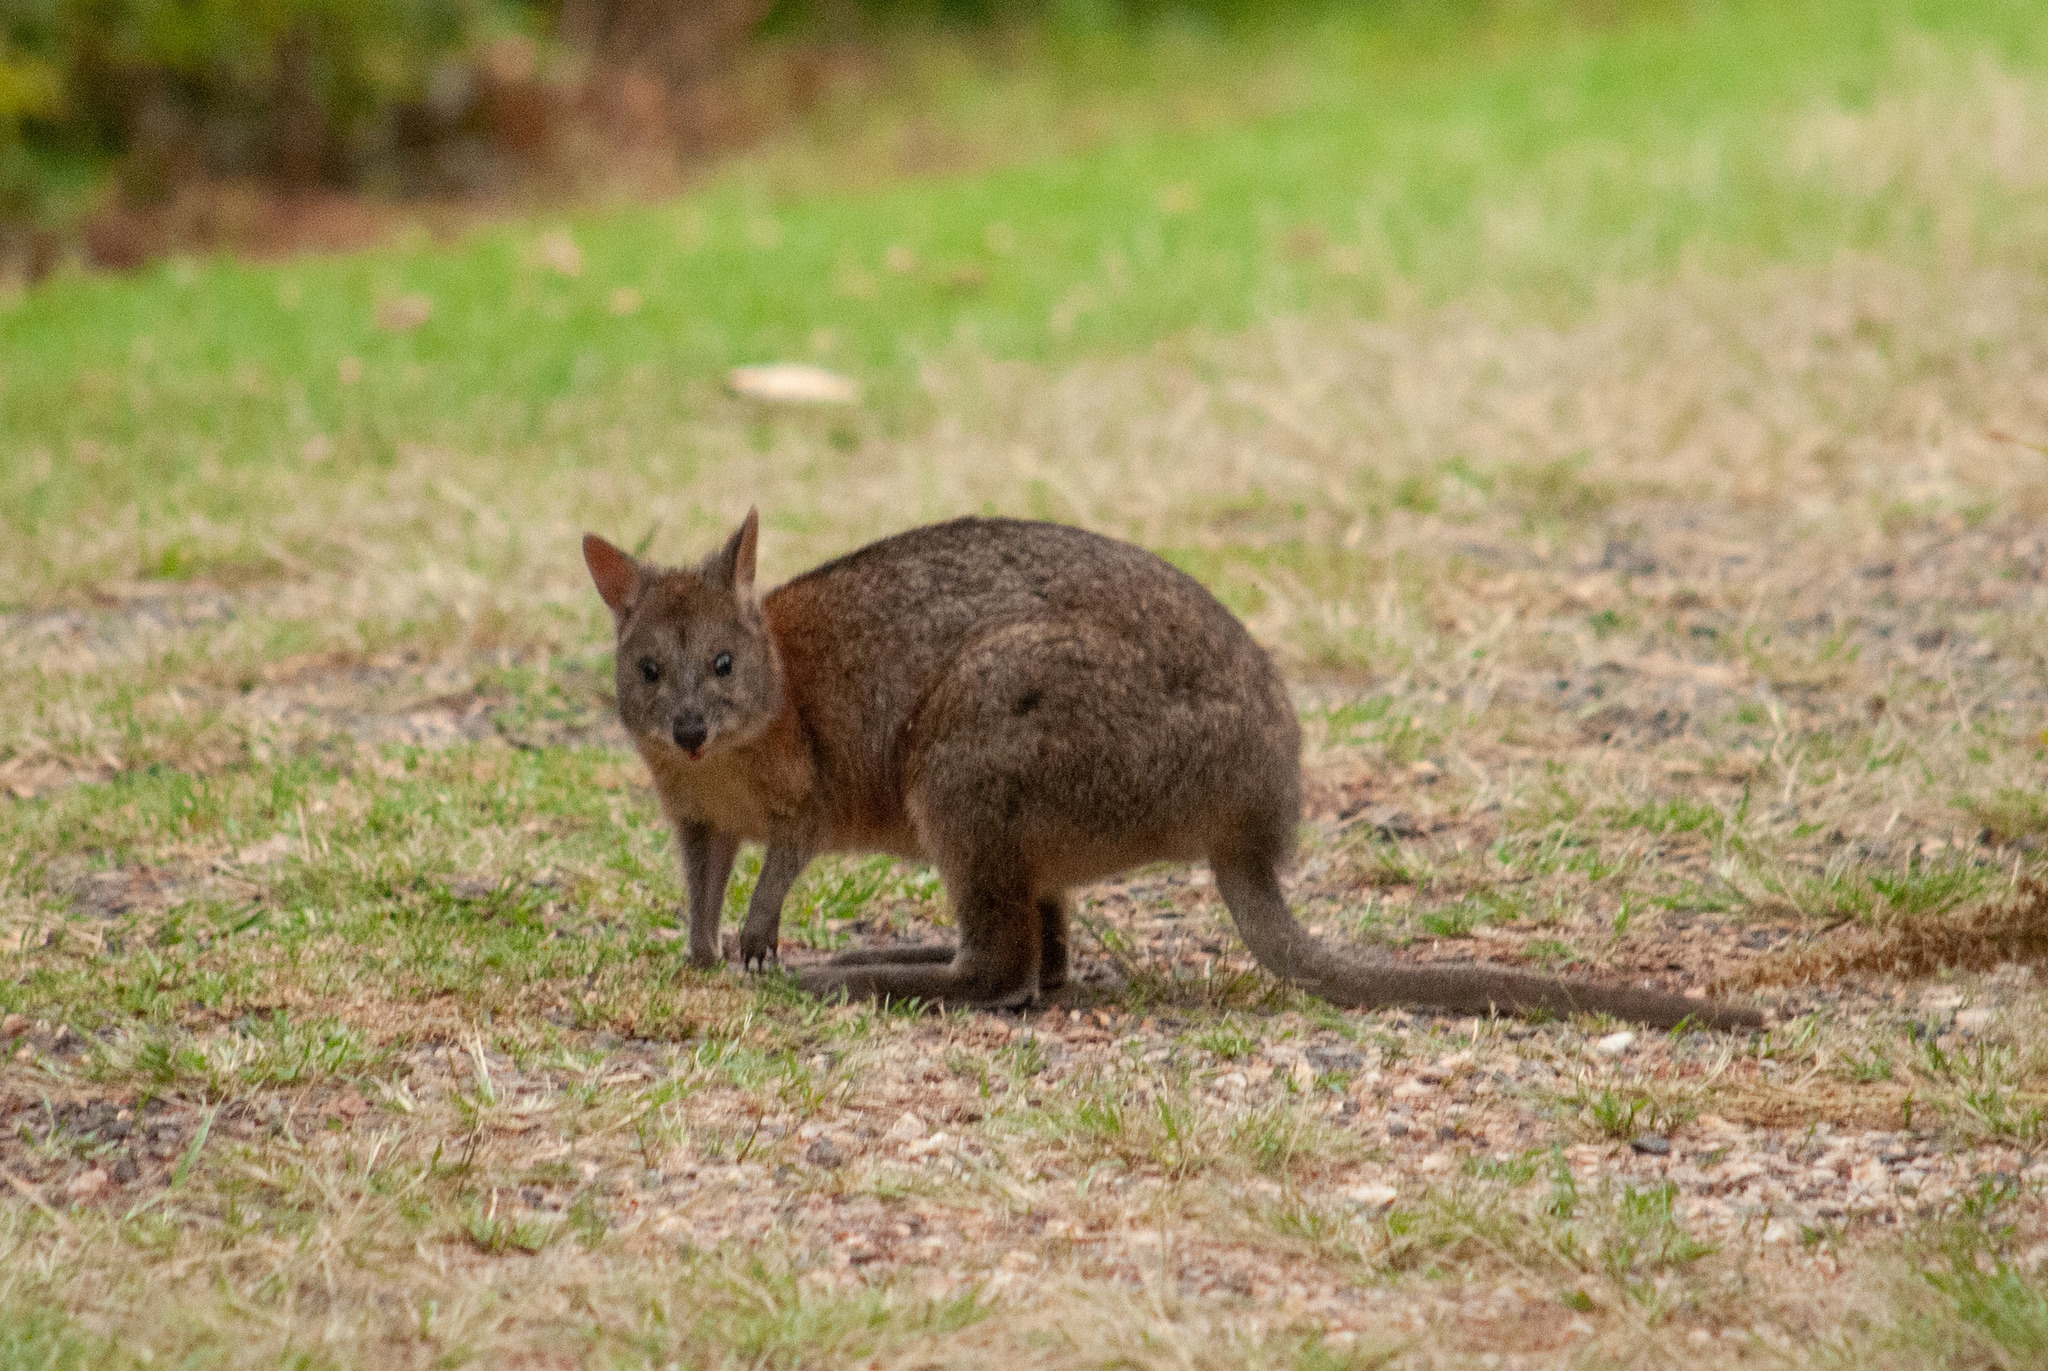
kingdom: Animalia
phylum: Chordata
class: Mammalia
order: Diprotodontia
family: Macropodidae
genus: Thylogale
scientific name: Thylogale thetis
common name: Red-necked pademelon
